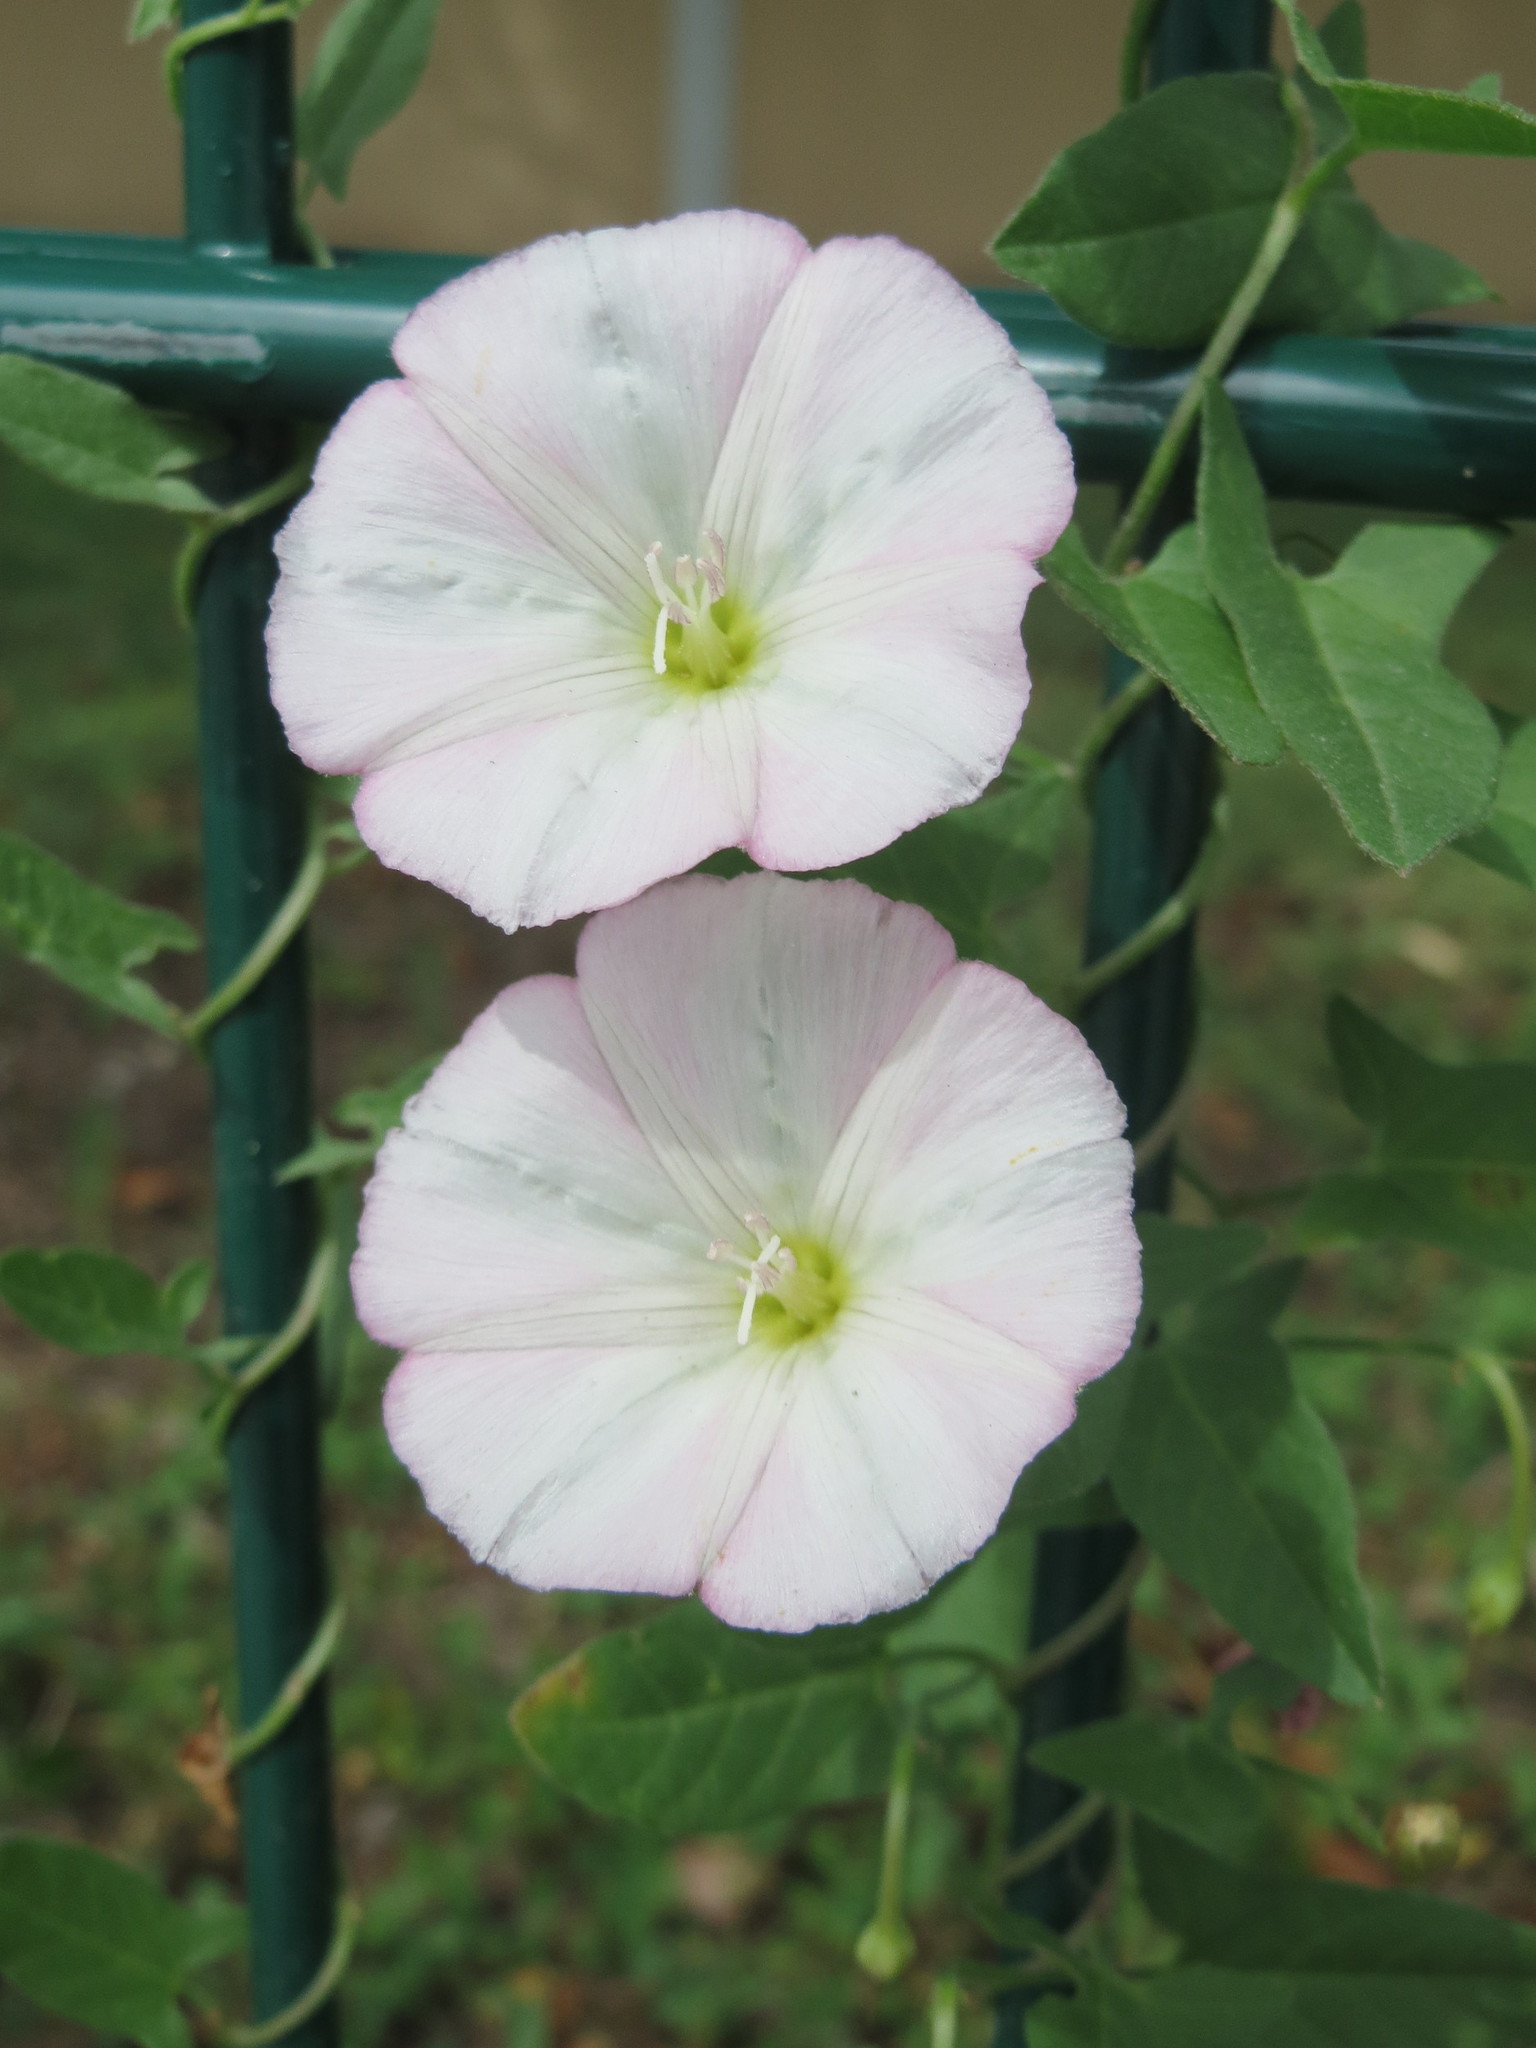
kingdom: Plantae
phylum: Tracheophyta
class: Magnoliopsida
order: Solanales
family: Convolvulaceae
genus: Convolvulus
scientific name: Convolvulus arvensis
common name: Field bindweed
